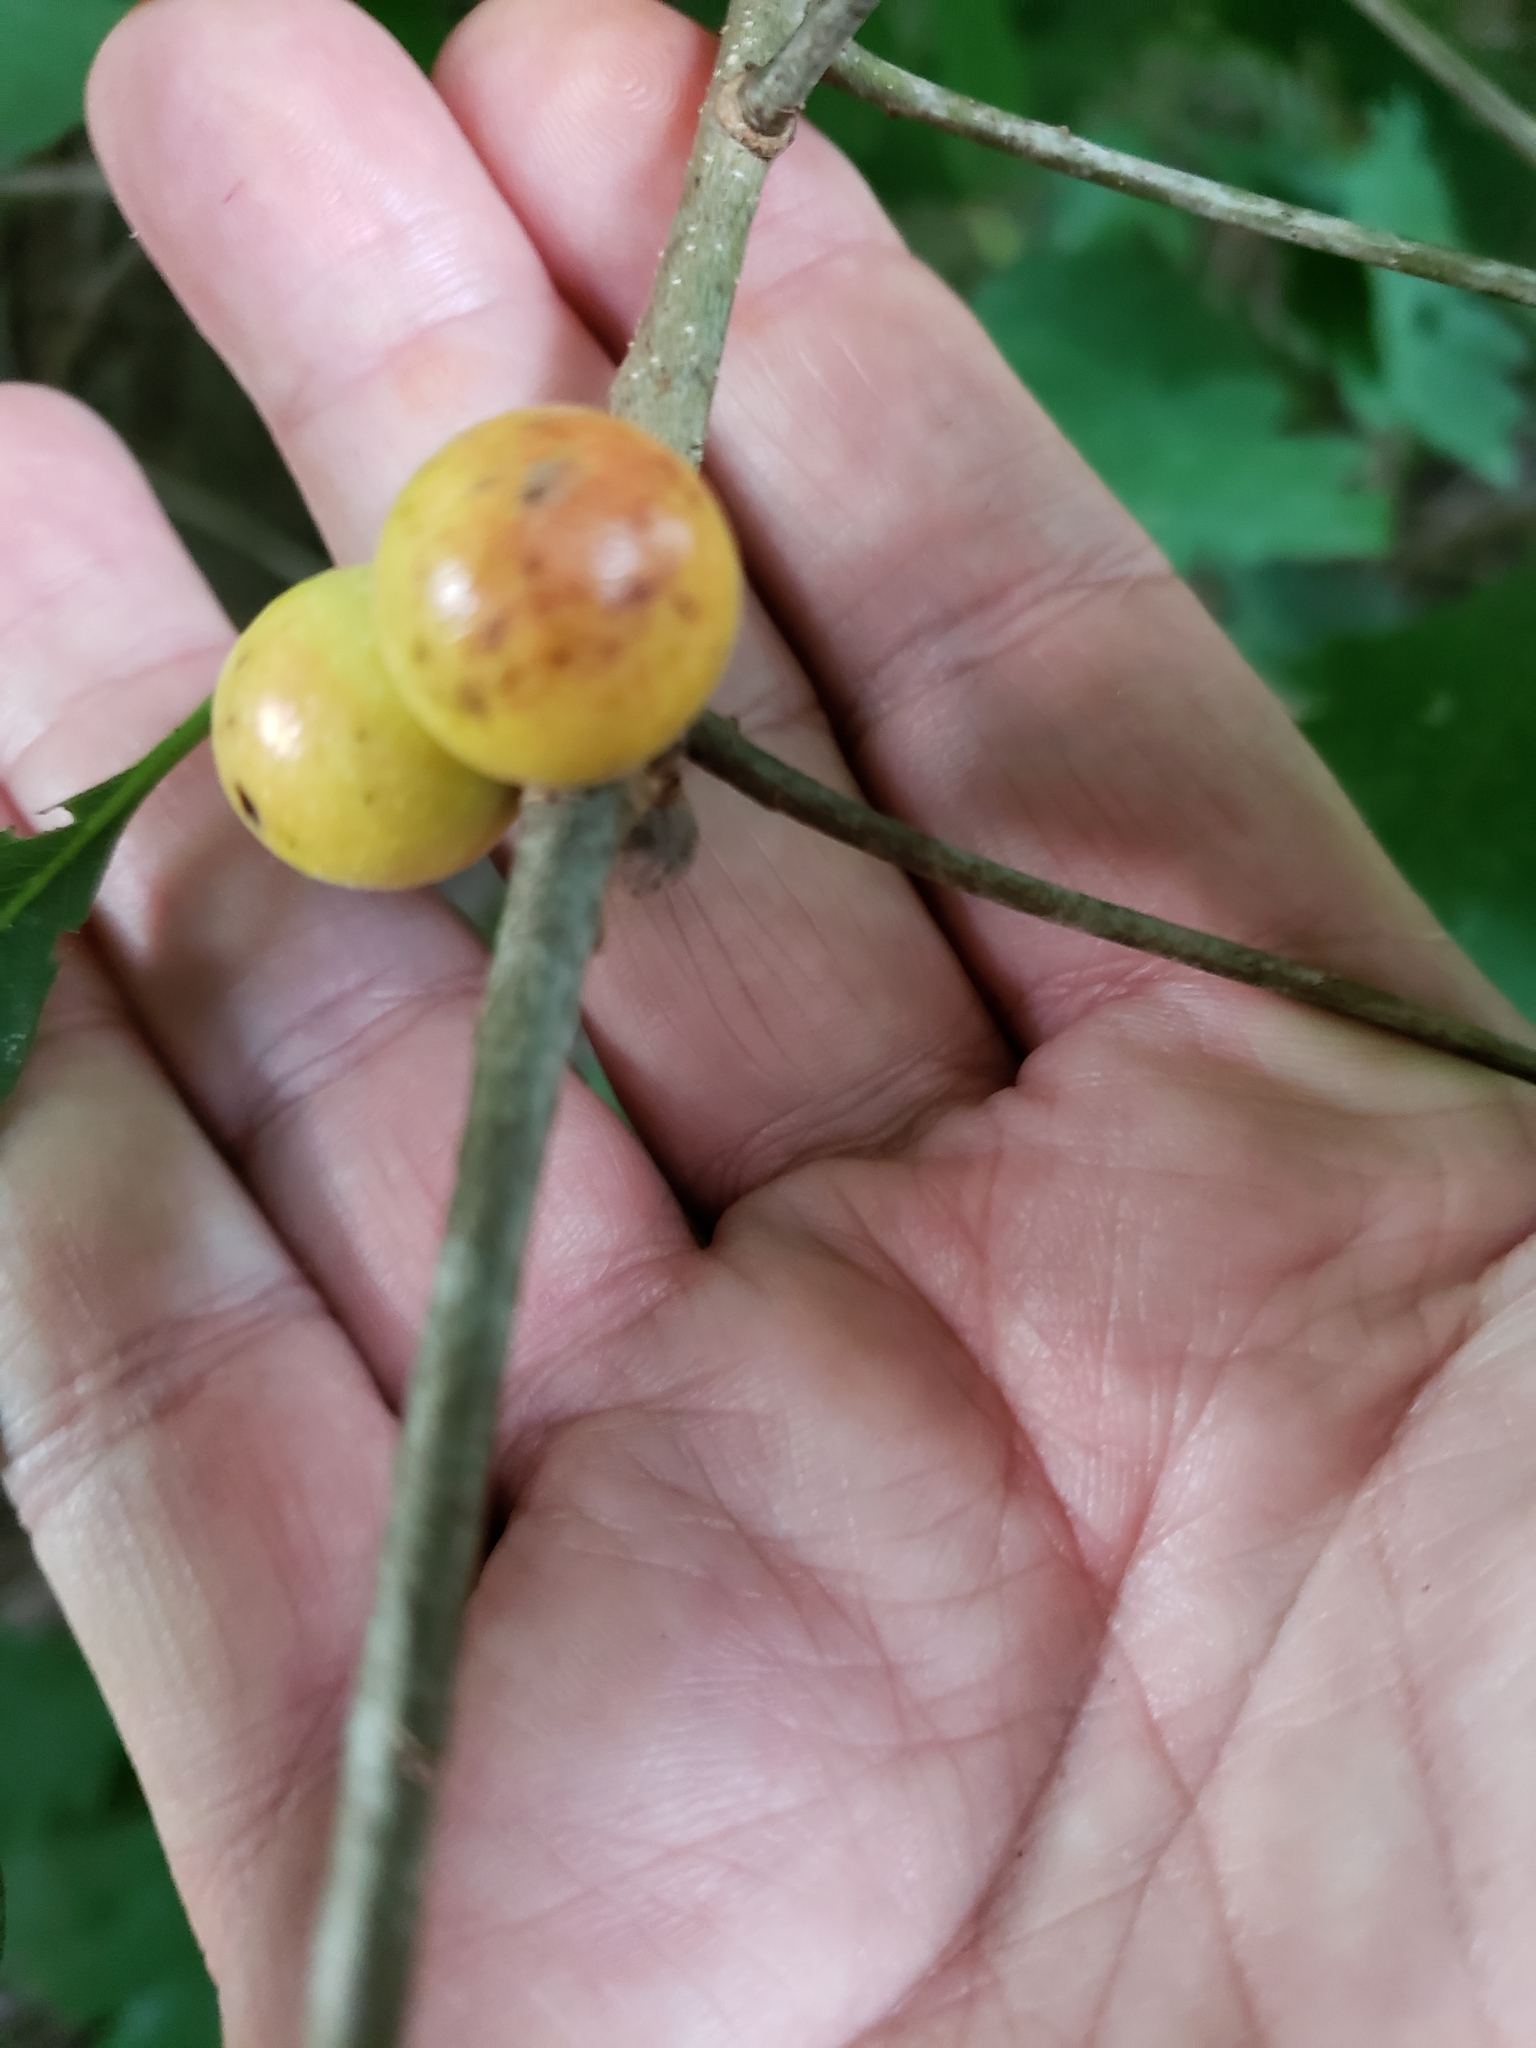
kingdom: Animalia
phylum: Arthropoda
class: Insecta
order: Hymenoptera
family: Cynipidae
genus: Disholcaspis
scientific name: Disholcaspis quercusglobulus
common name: Round bullet gall wasp
